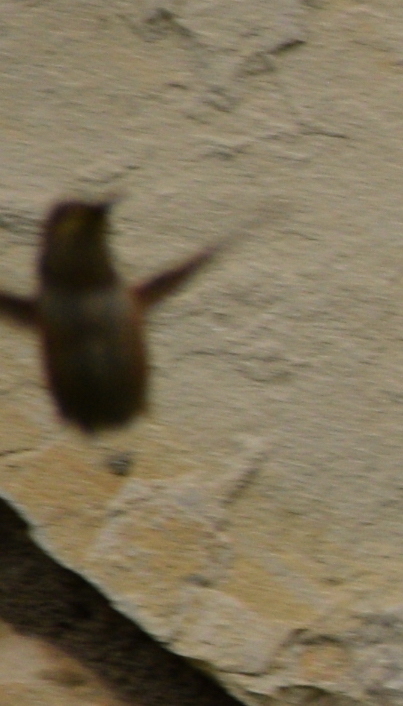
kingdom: Animalia
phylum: Chordata
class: Aves
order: Apodiformes
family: Trochilidae
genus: Selasphorus
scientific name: Selasphorus
